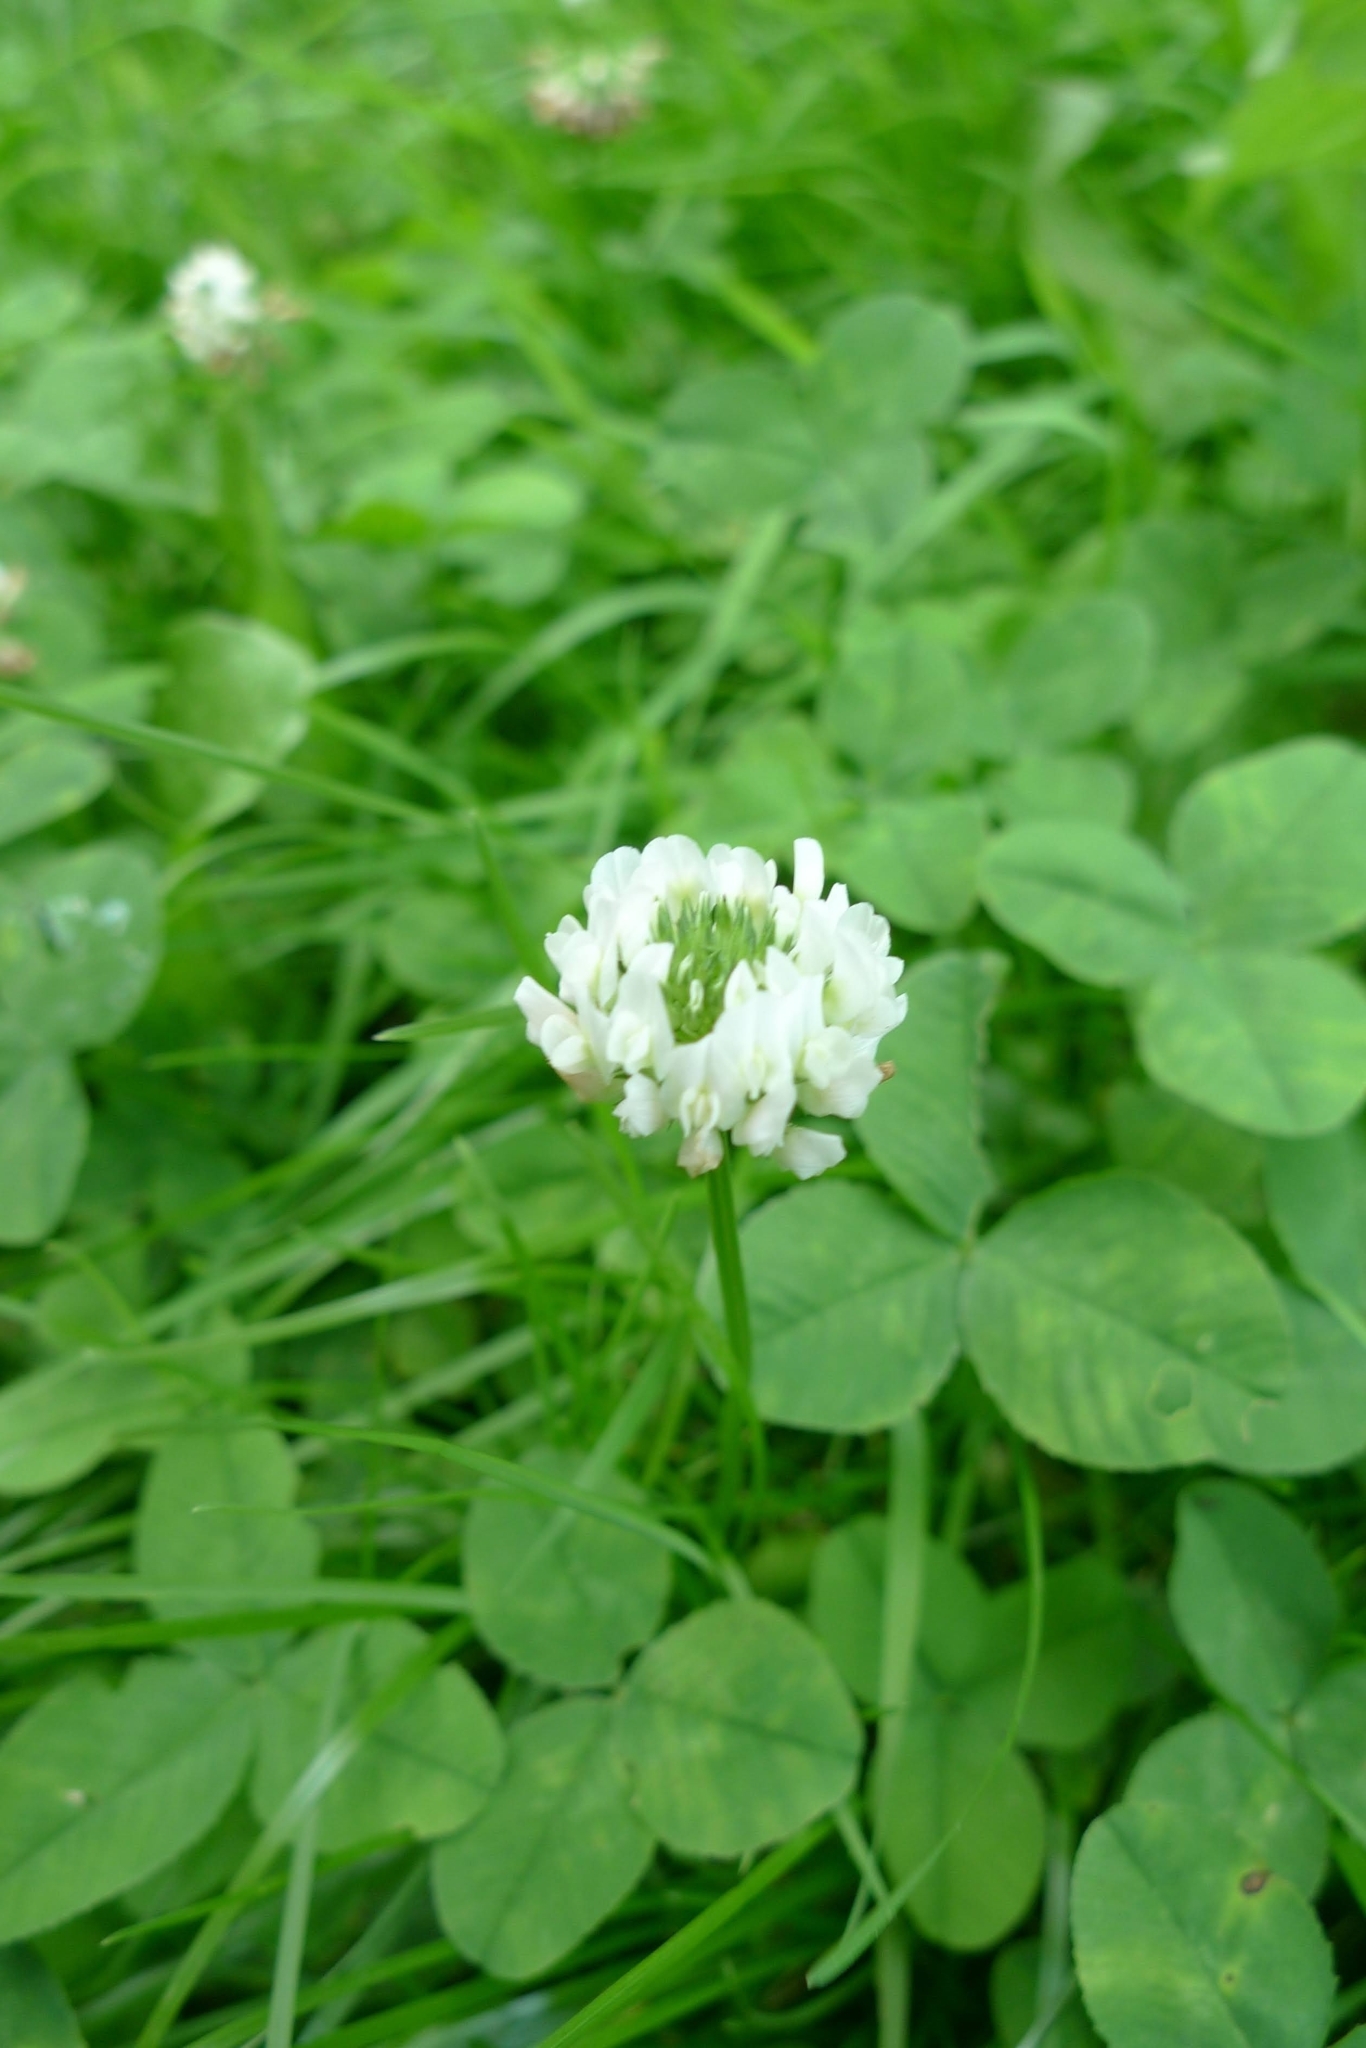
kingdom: Plantae
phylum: Tracheophyta
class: Magnoliopsida
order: Fabales
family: Fabaceae
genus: Trifolium
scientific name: Trifolium repens
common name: White clover
